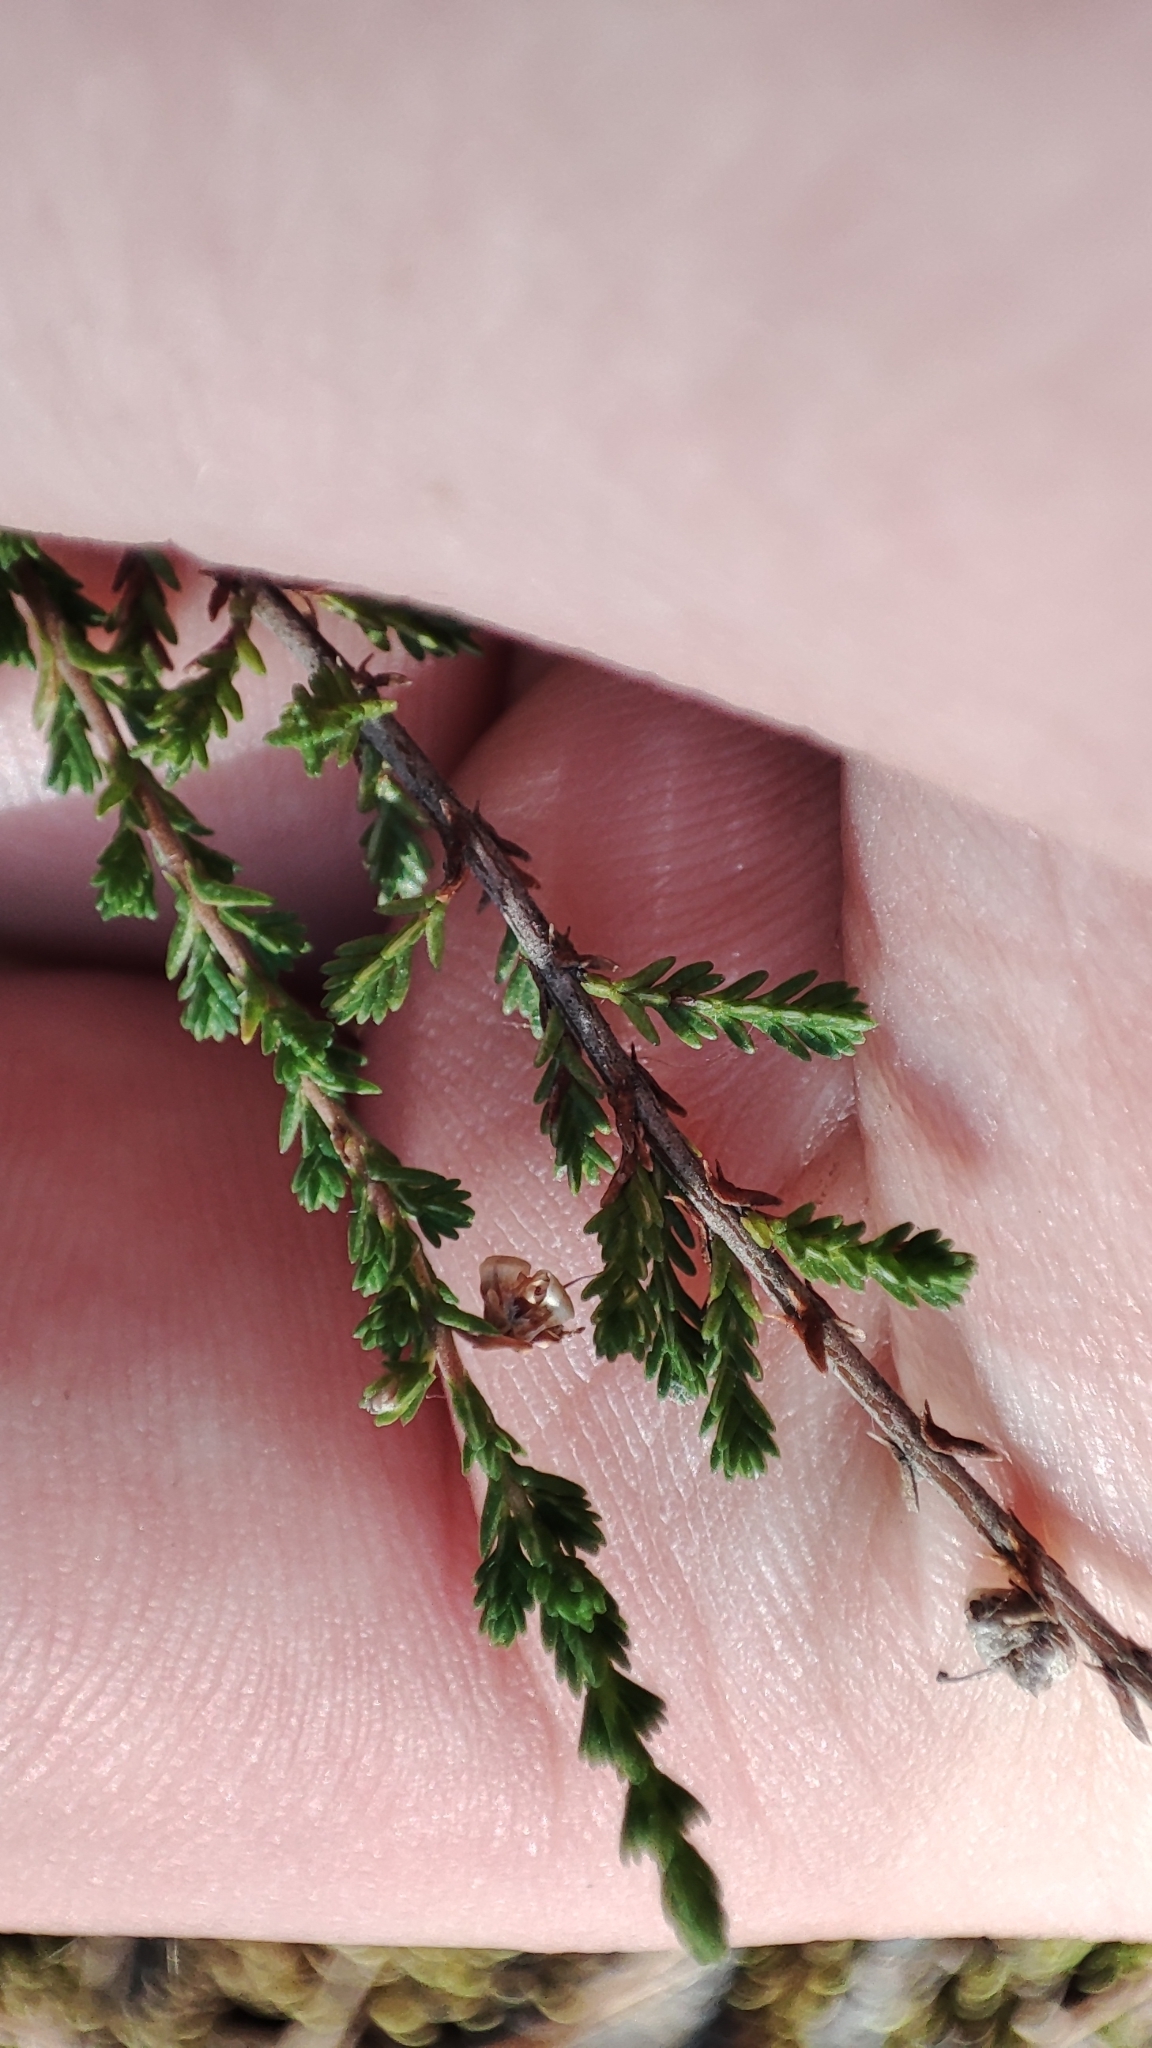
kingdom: Plantae
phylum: Tracheophyta
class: Magnoliopsida
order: Ericales
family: Ericaceae
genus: Calluna
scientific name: Calluna vulgaris
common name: Heather
